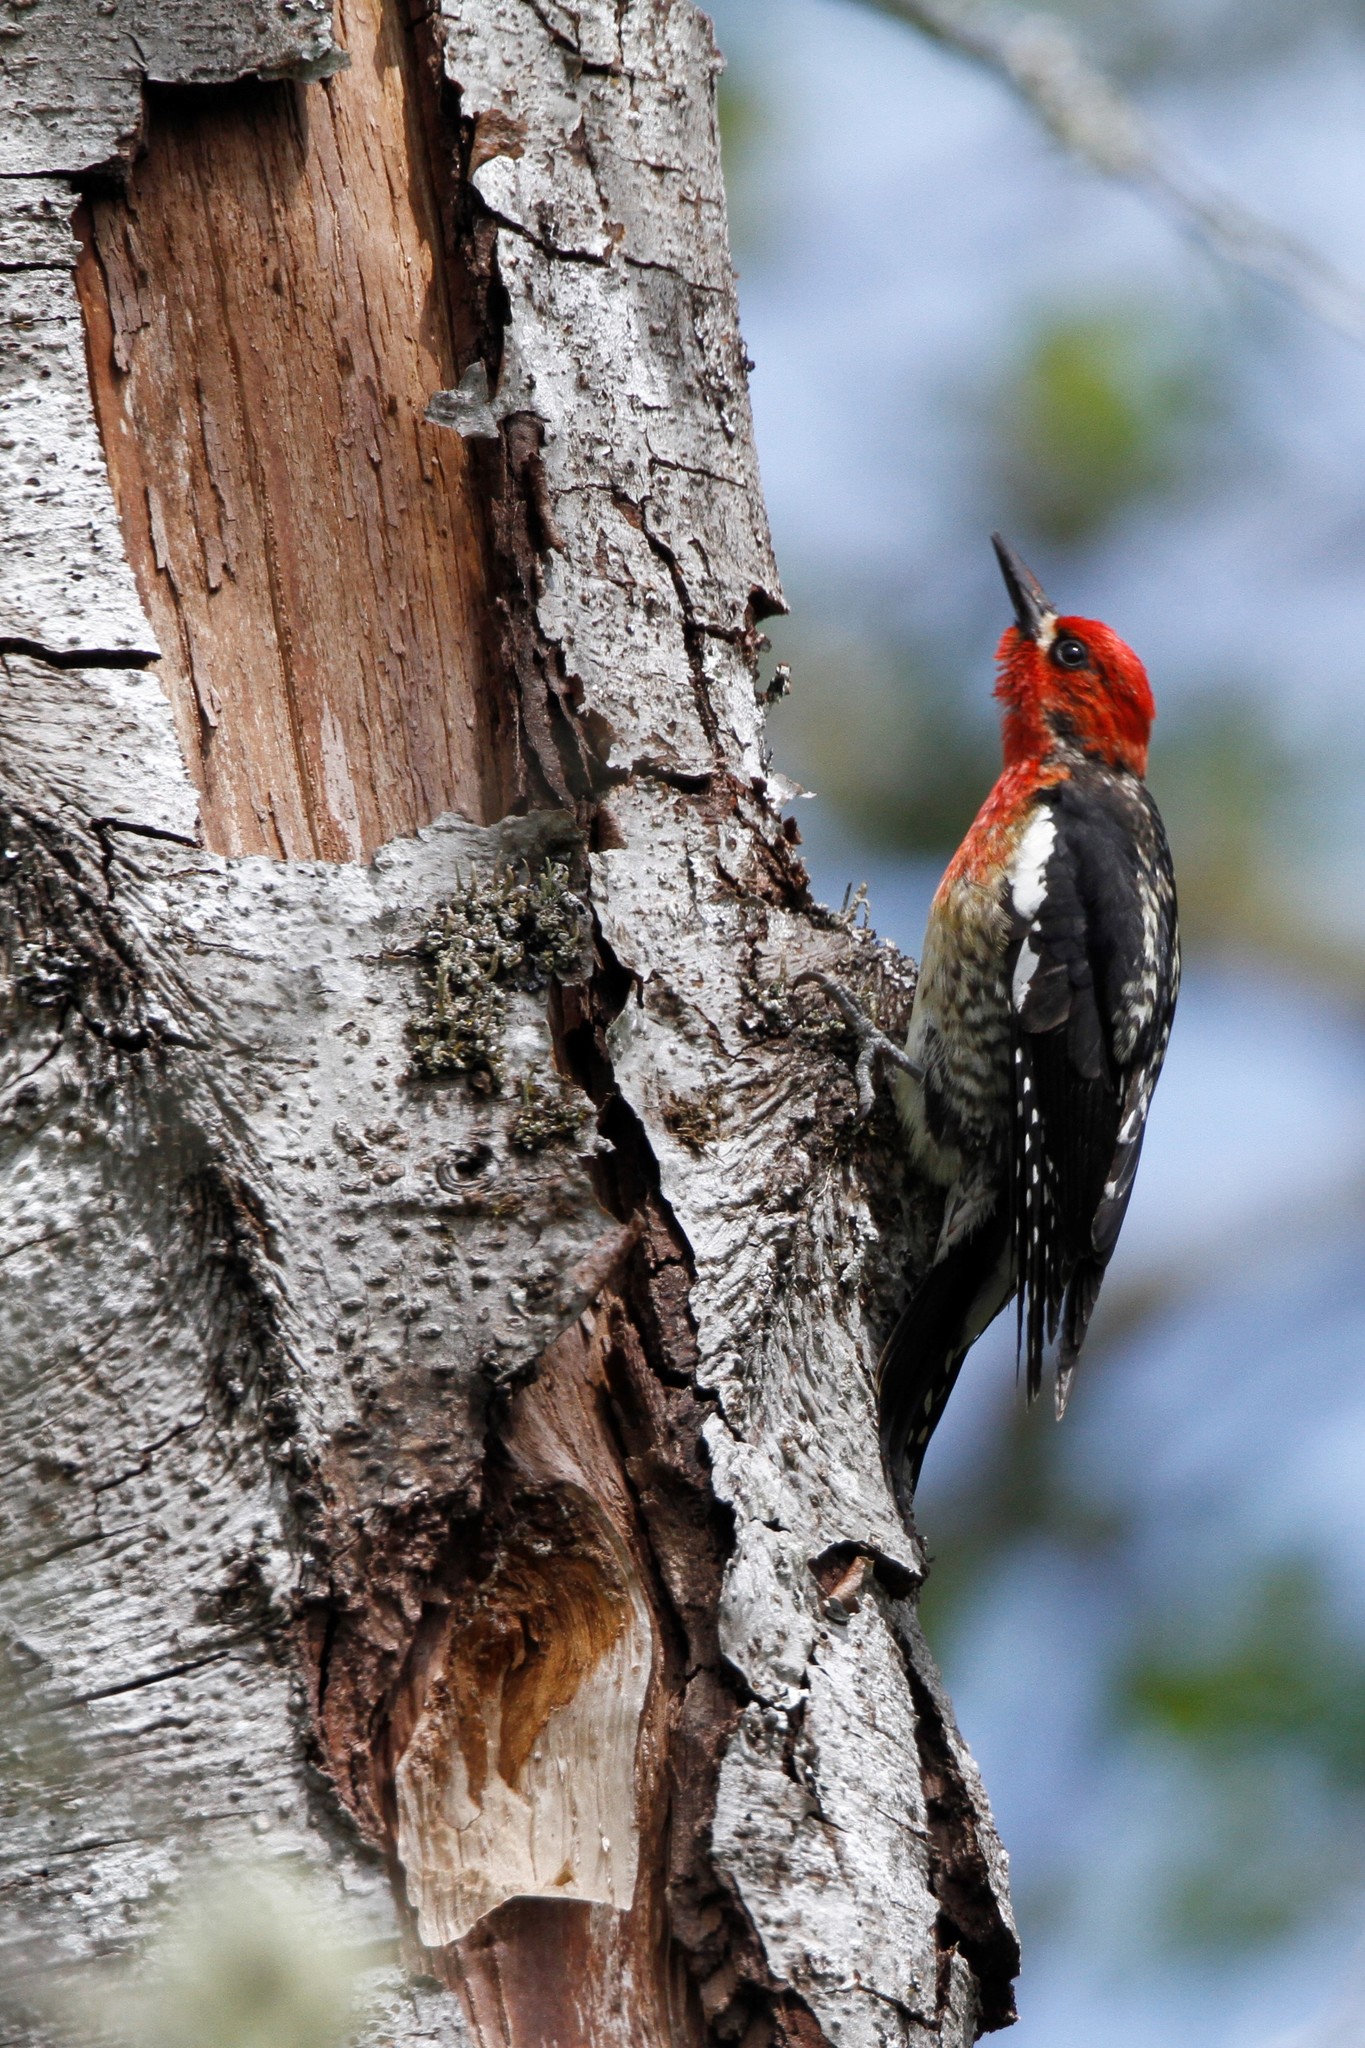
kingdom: Animalia
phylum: Chordata
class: Aves
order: Piciformes
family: Picidae
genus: Sphyrapicus
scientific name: Sphyrapicus ruber
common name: Red-breasted sapsucker
